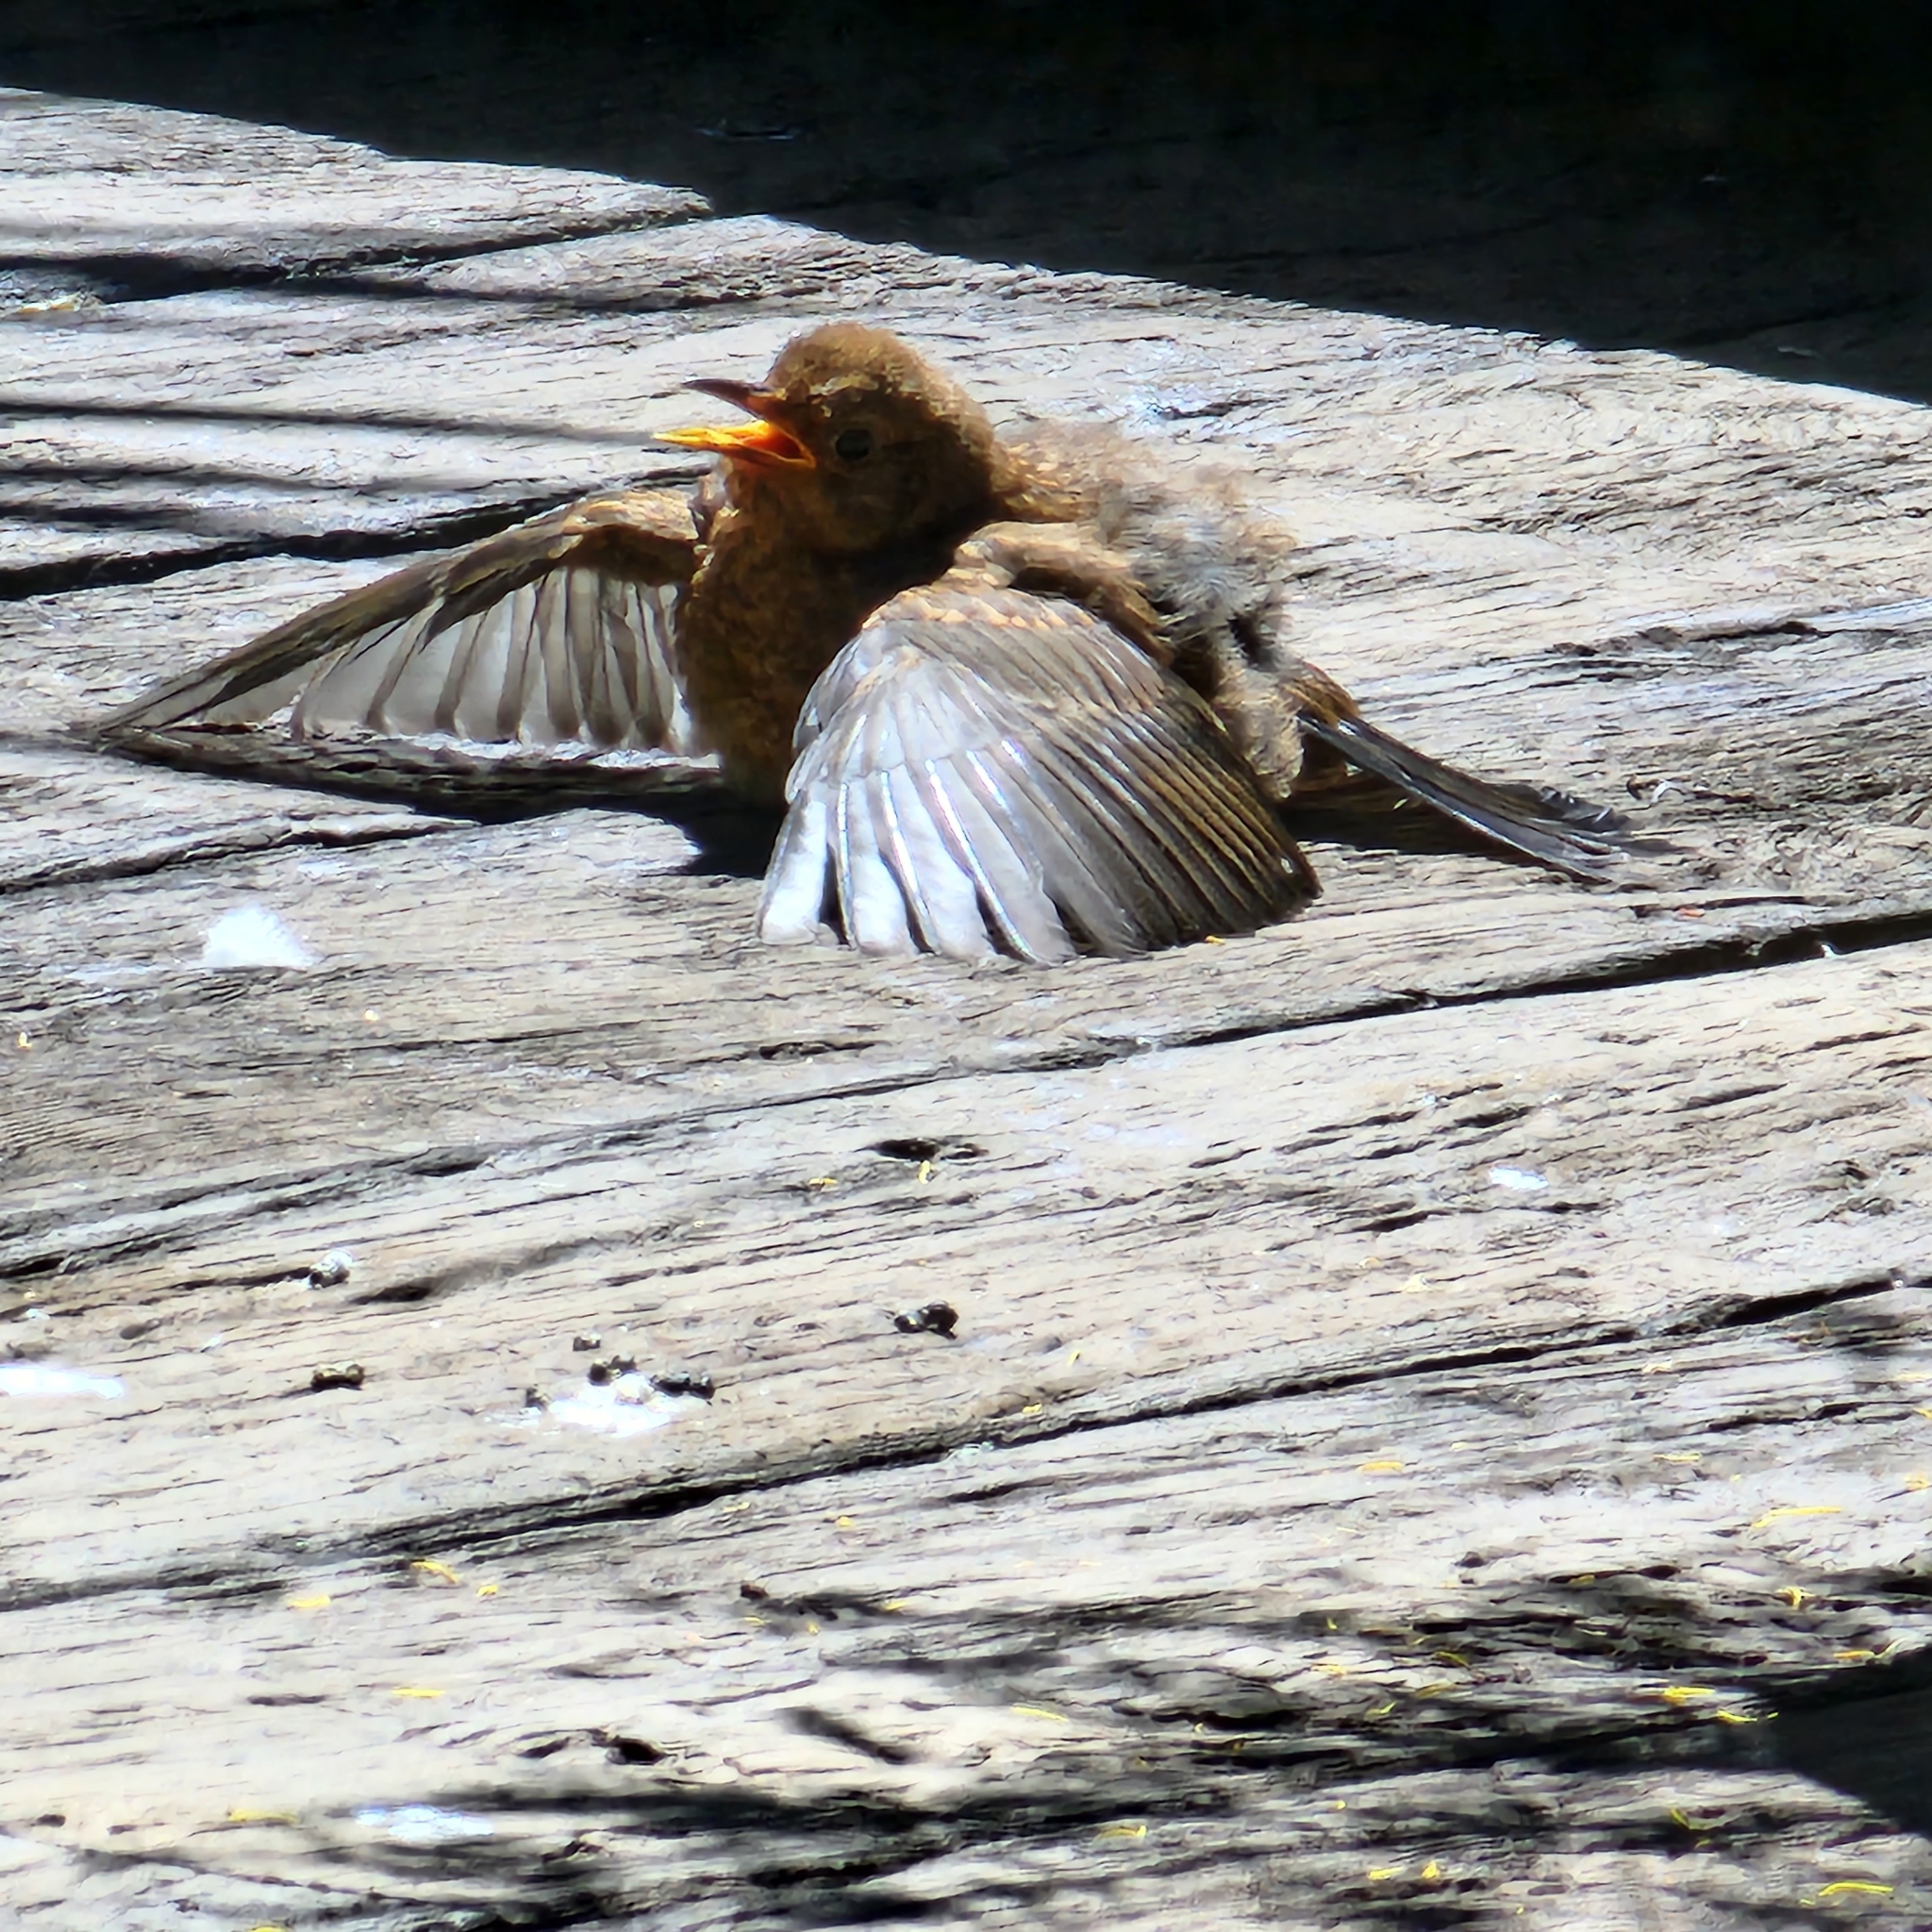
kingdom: Animalia
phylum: Chordata
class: Aves
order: Passeriformes
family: Turdidae
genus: Turdus
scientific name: Turdus merula
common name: Common blackbird
